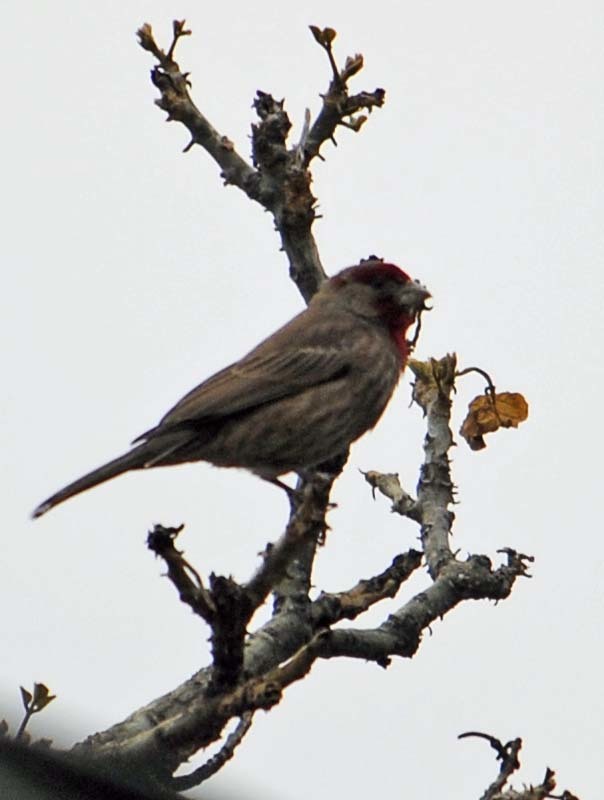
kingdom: Animalia
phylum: Chordata
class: Aves
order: Passeriformes
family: Fringillidae
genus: Haemorhous
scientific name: Haemorhous mexicanus
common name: House finch
